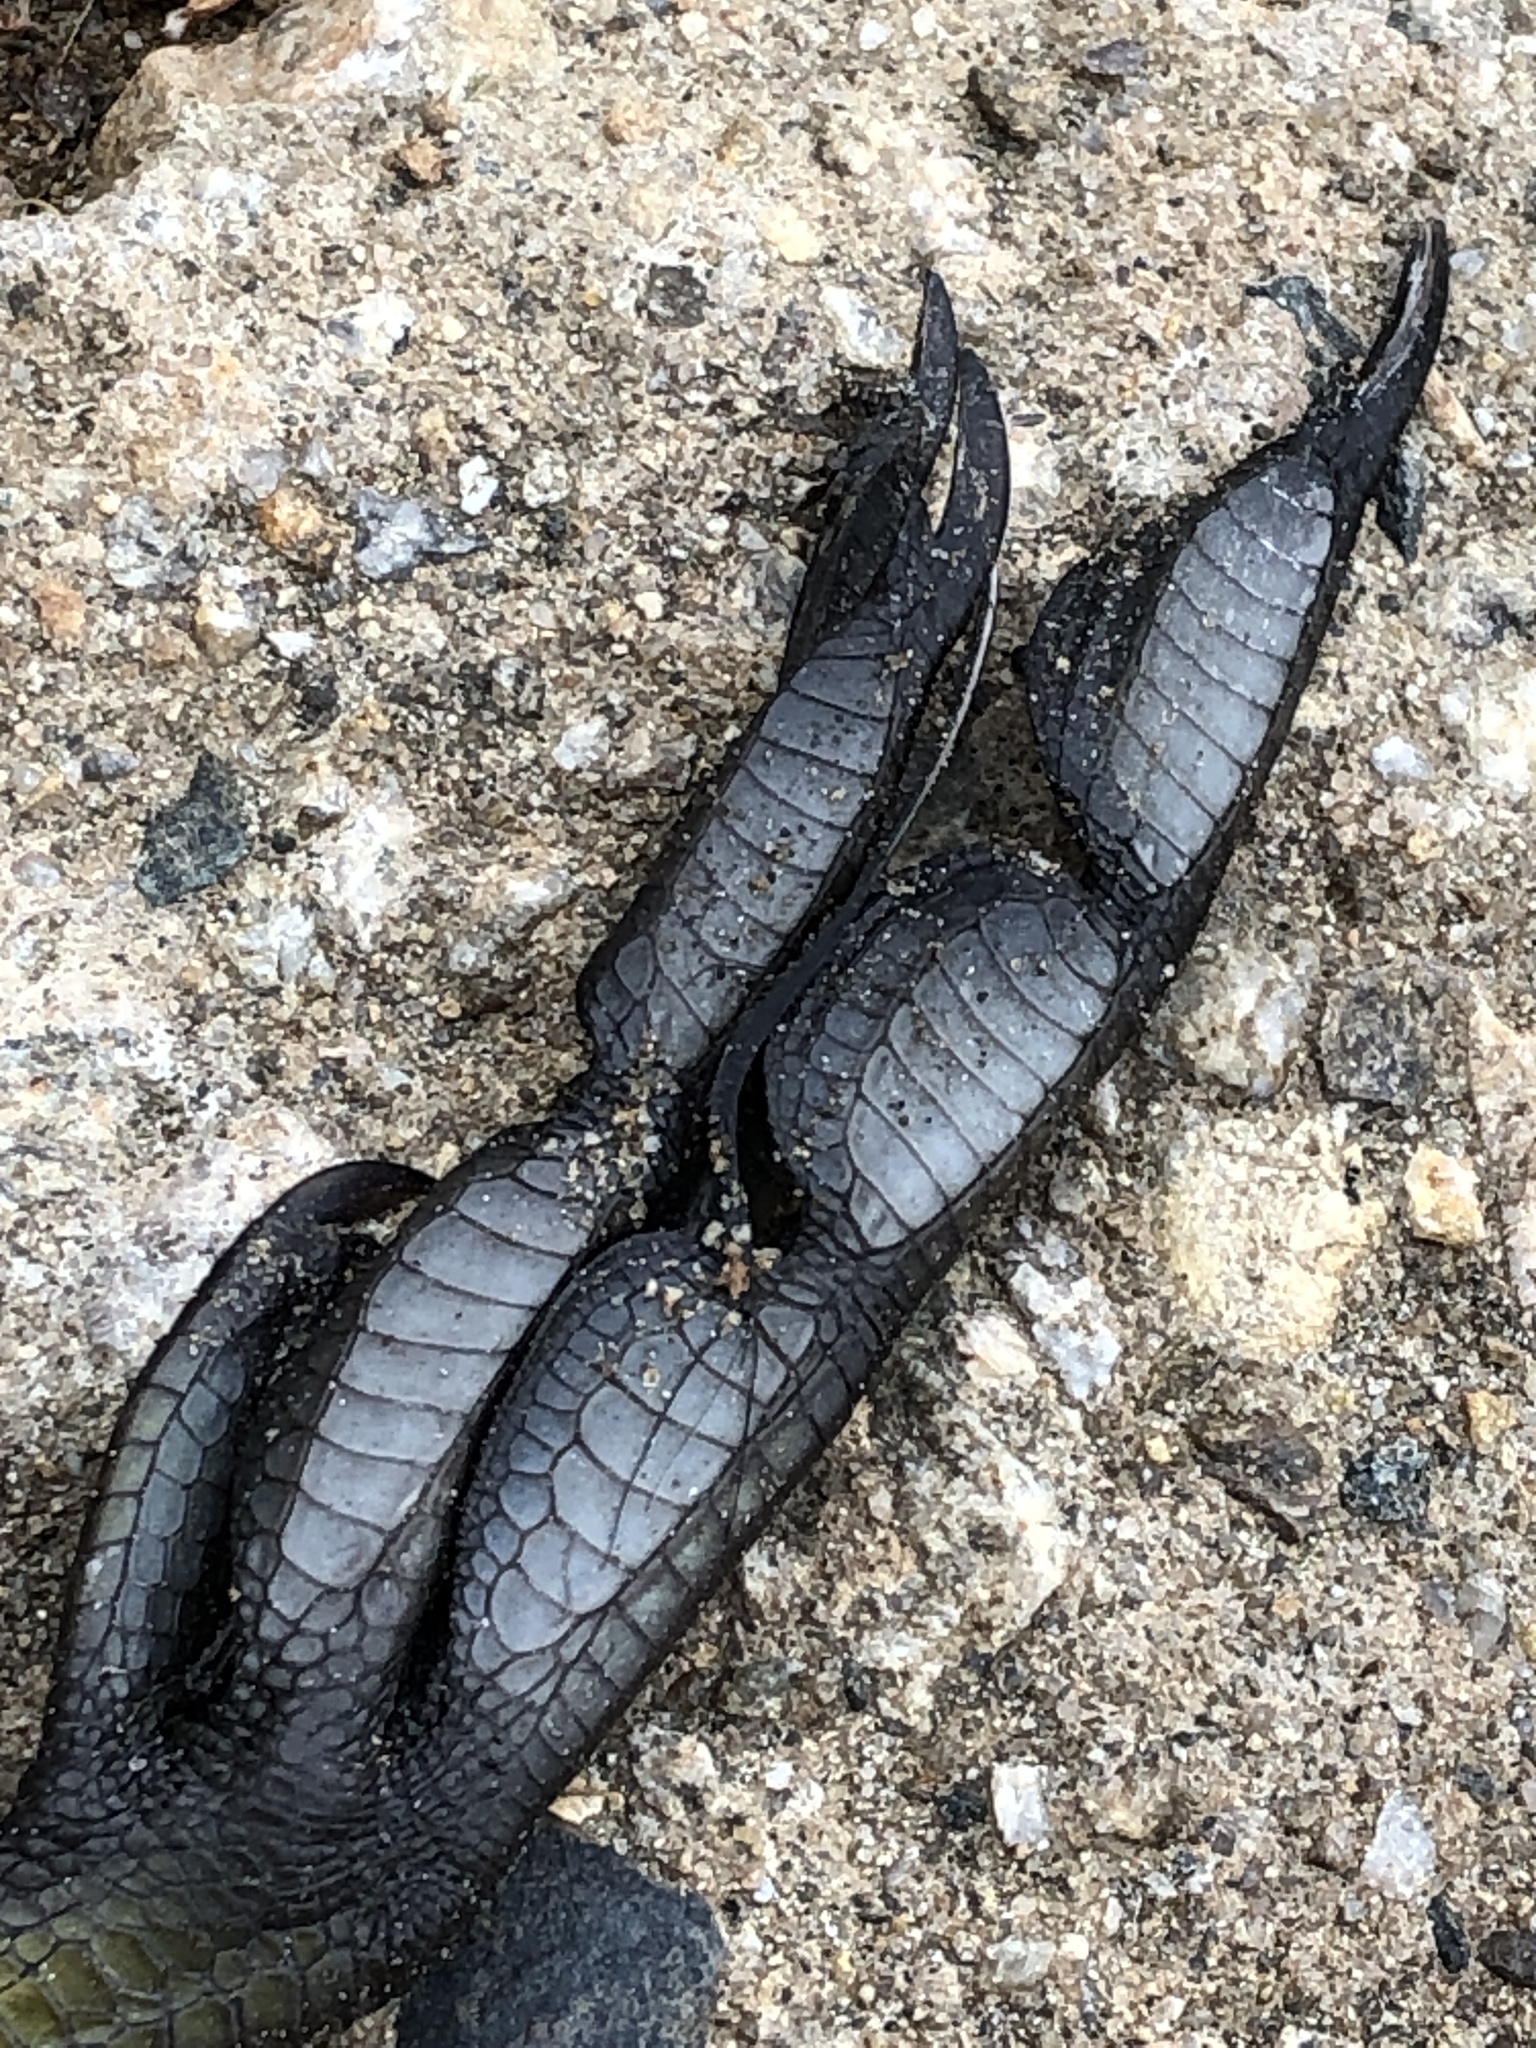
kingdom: Animalia
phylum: Chordata
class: Aves
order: Gruiformes
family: Rallidae
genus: Fulica
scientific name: Fulica atra
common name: Eurasian coot
